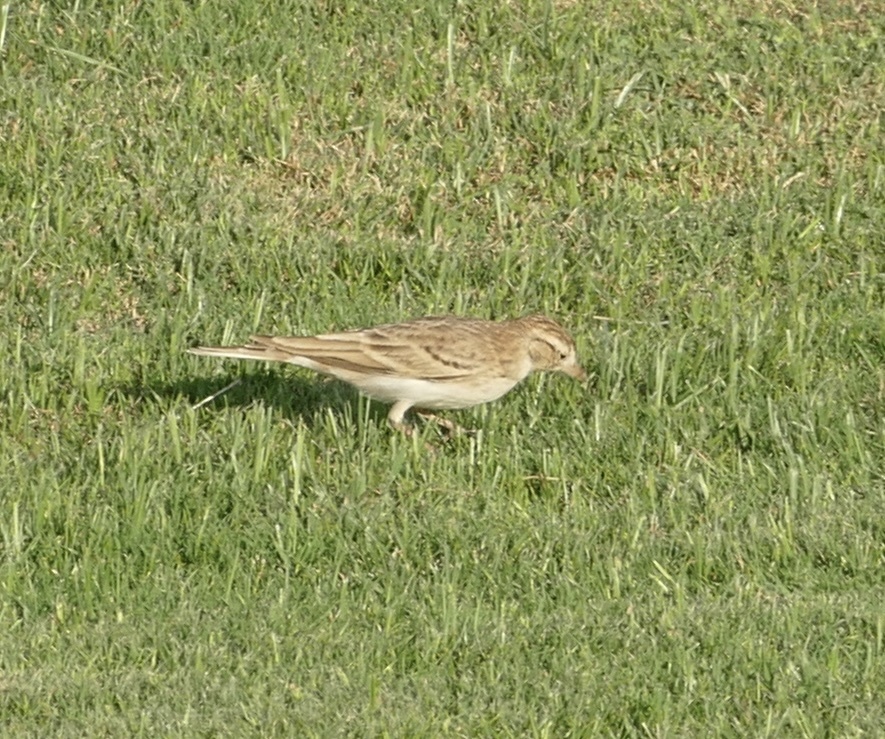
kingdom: Animalia
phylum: Chordata
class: Aves
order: Passeriformes
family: Alaudidae
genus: Calandrella
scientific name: Calandrella brachydactyla
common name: Greater short-toed lark
